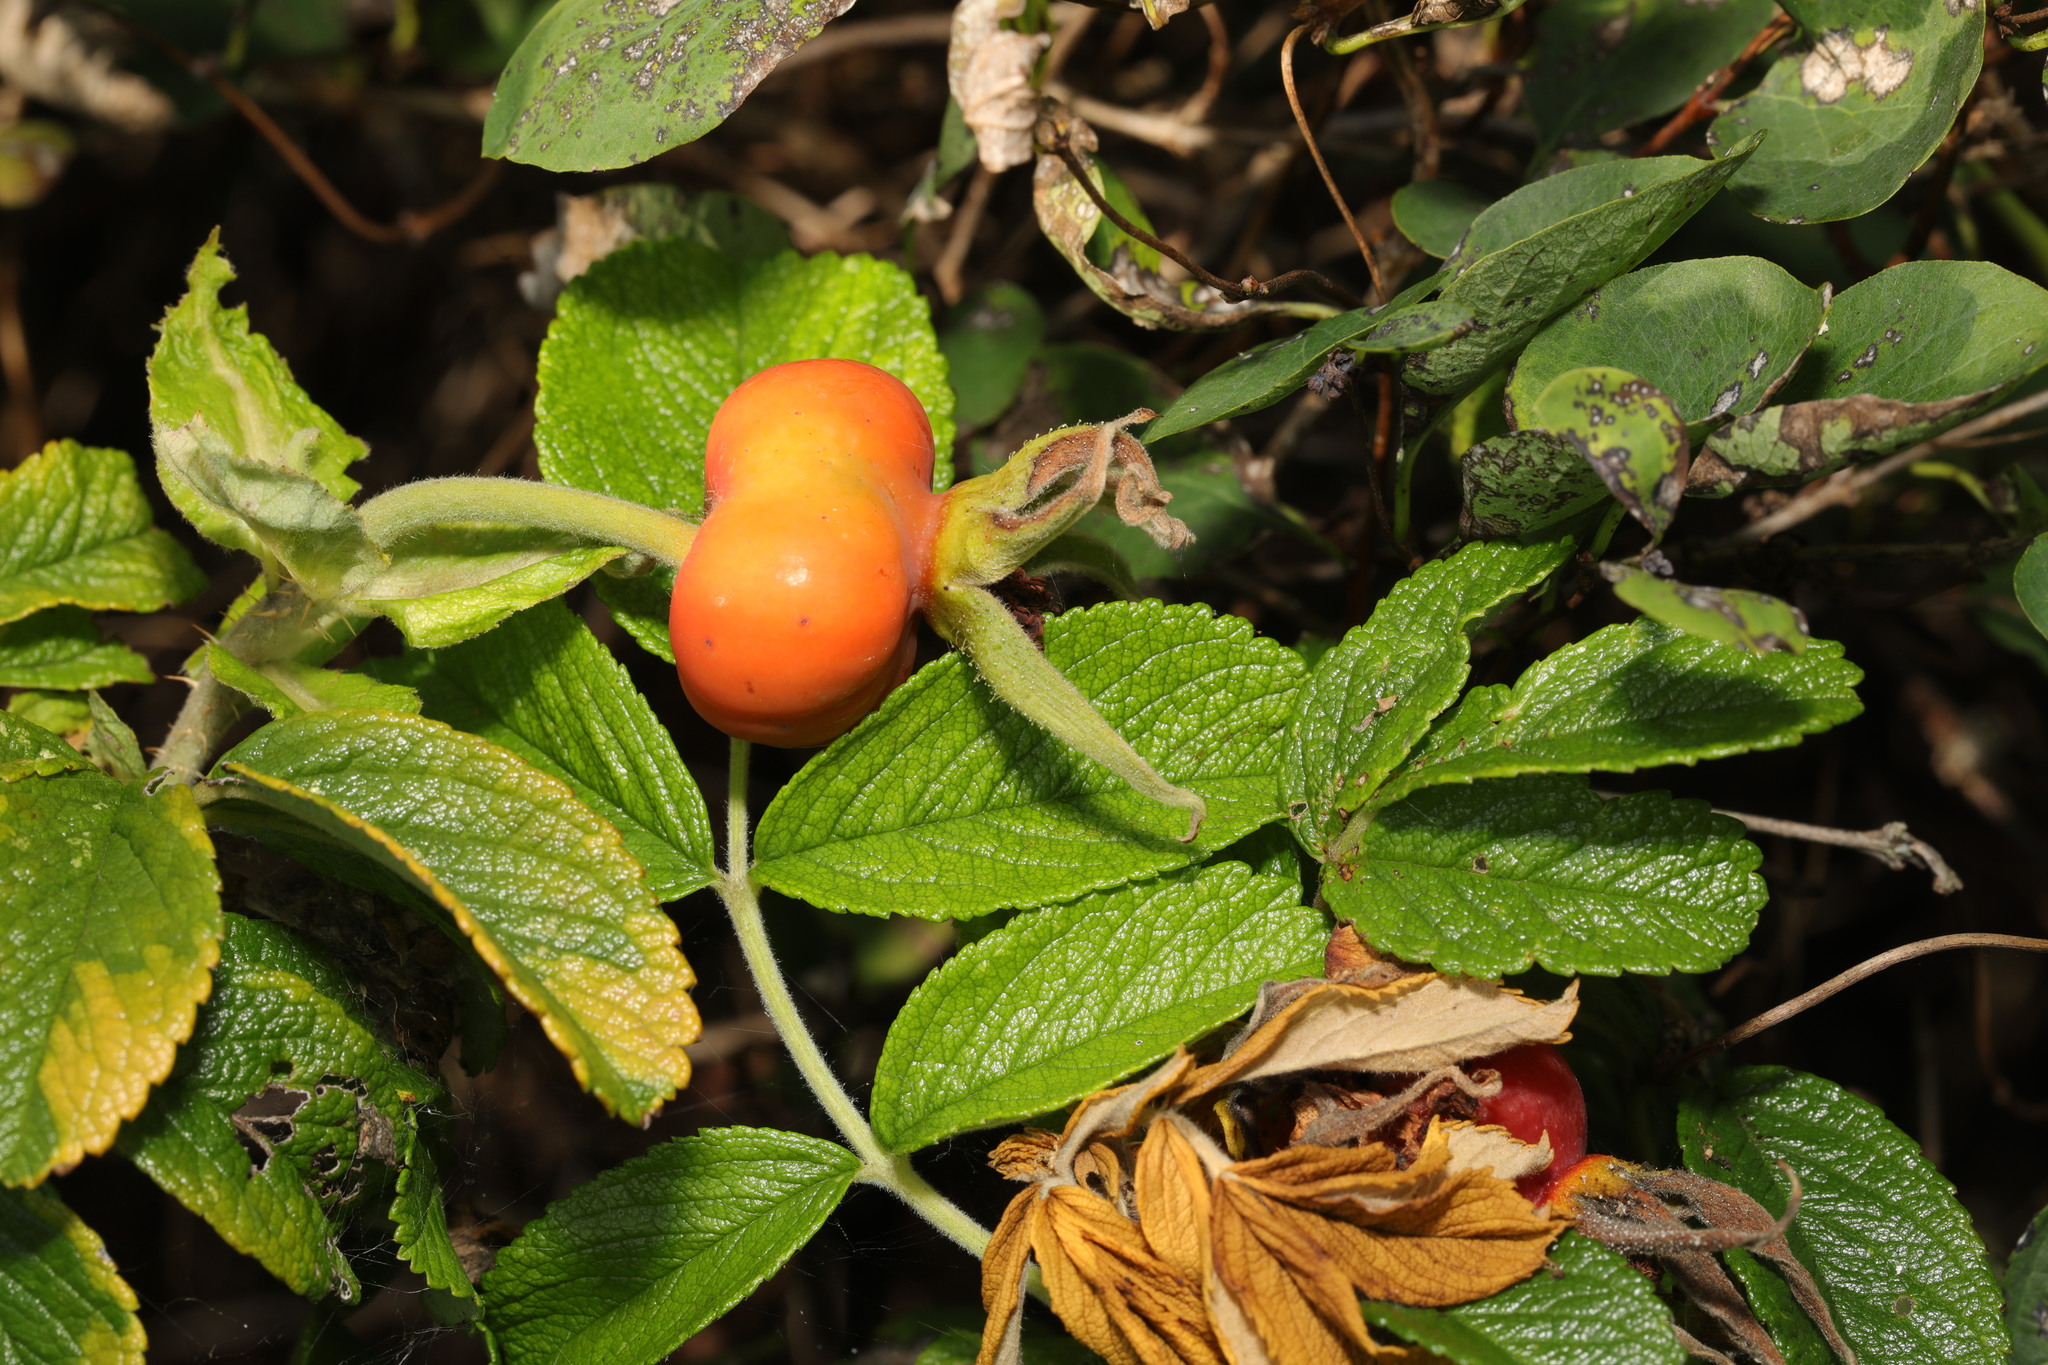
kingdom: Plantae
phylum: Tracheophyta
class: Magnoliopsida
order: Rosales
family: Rosaceae
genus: Rosa
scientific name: Rosa rugosa
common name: Japanese rose
